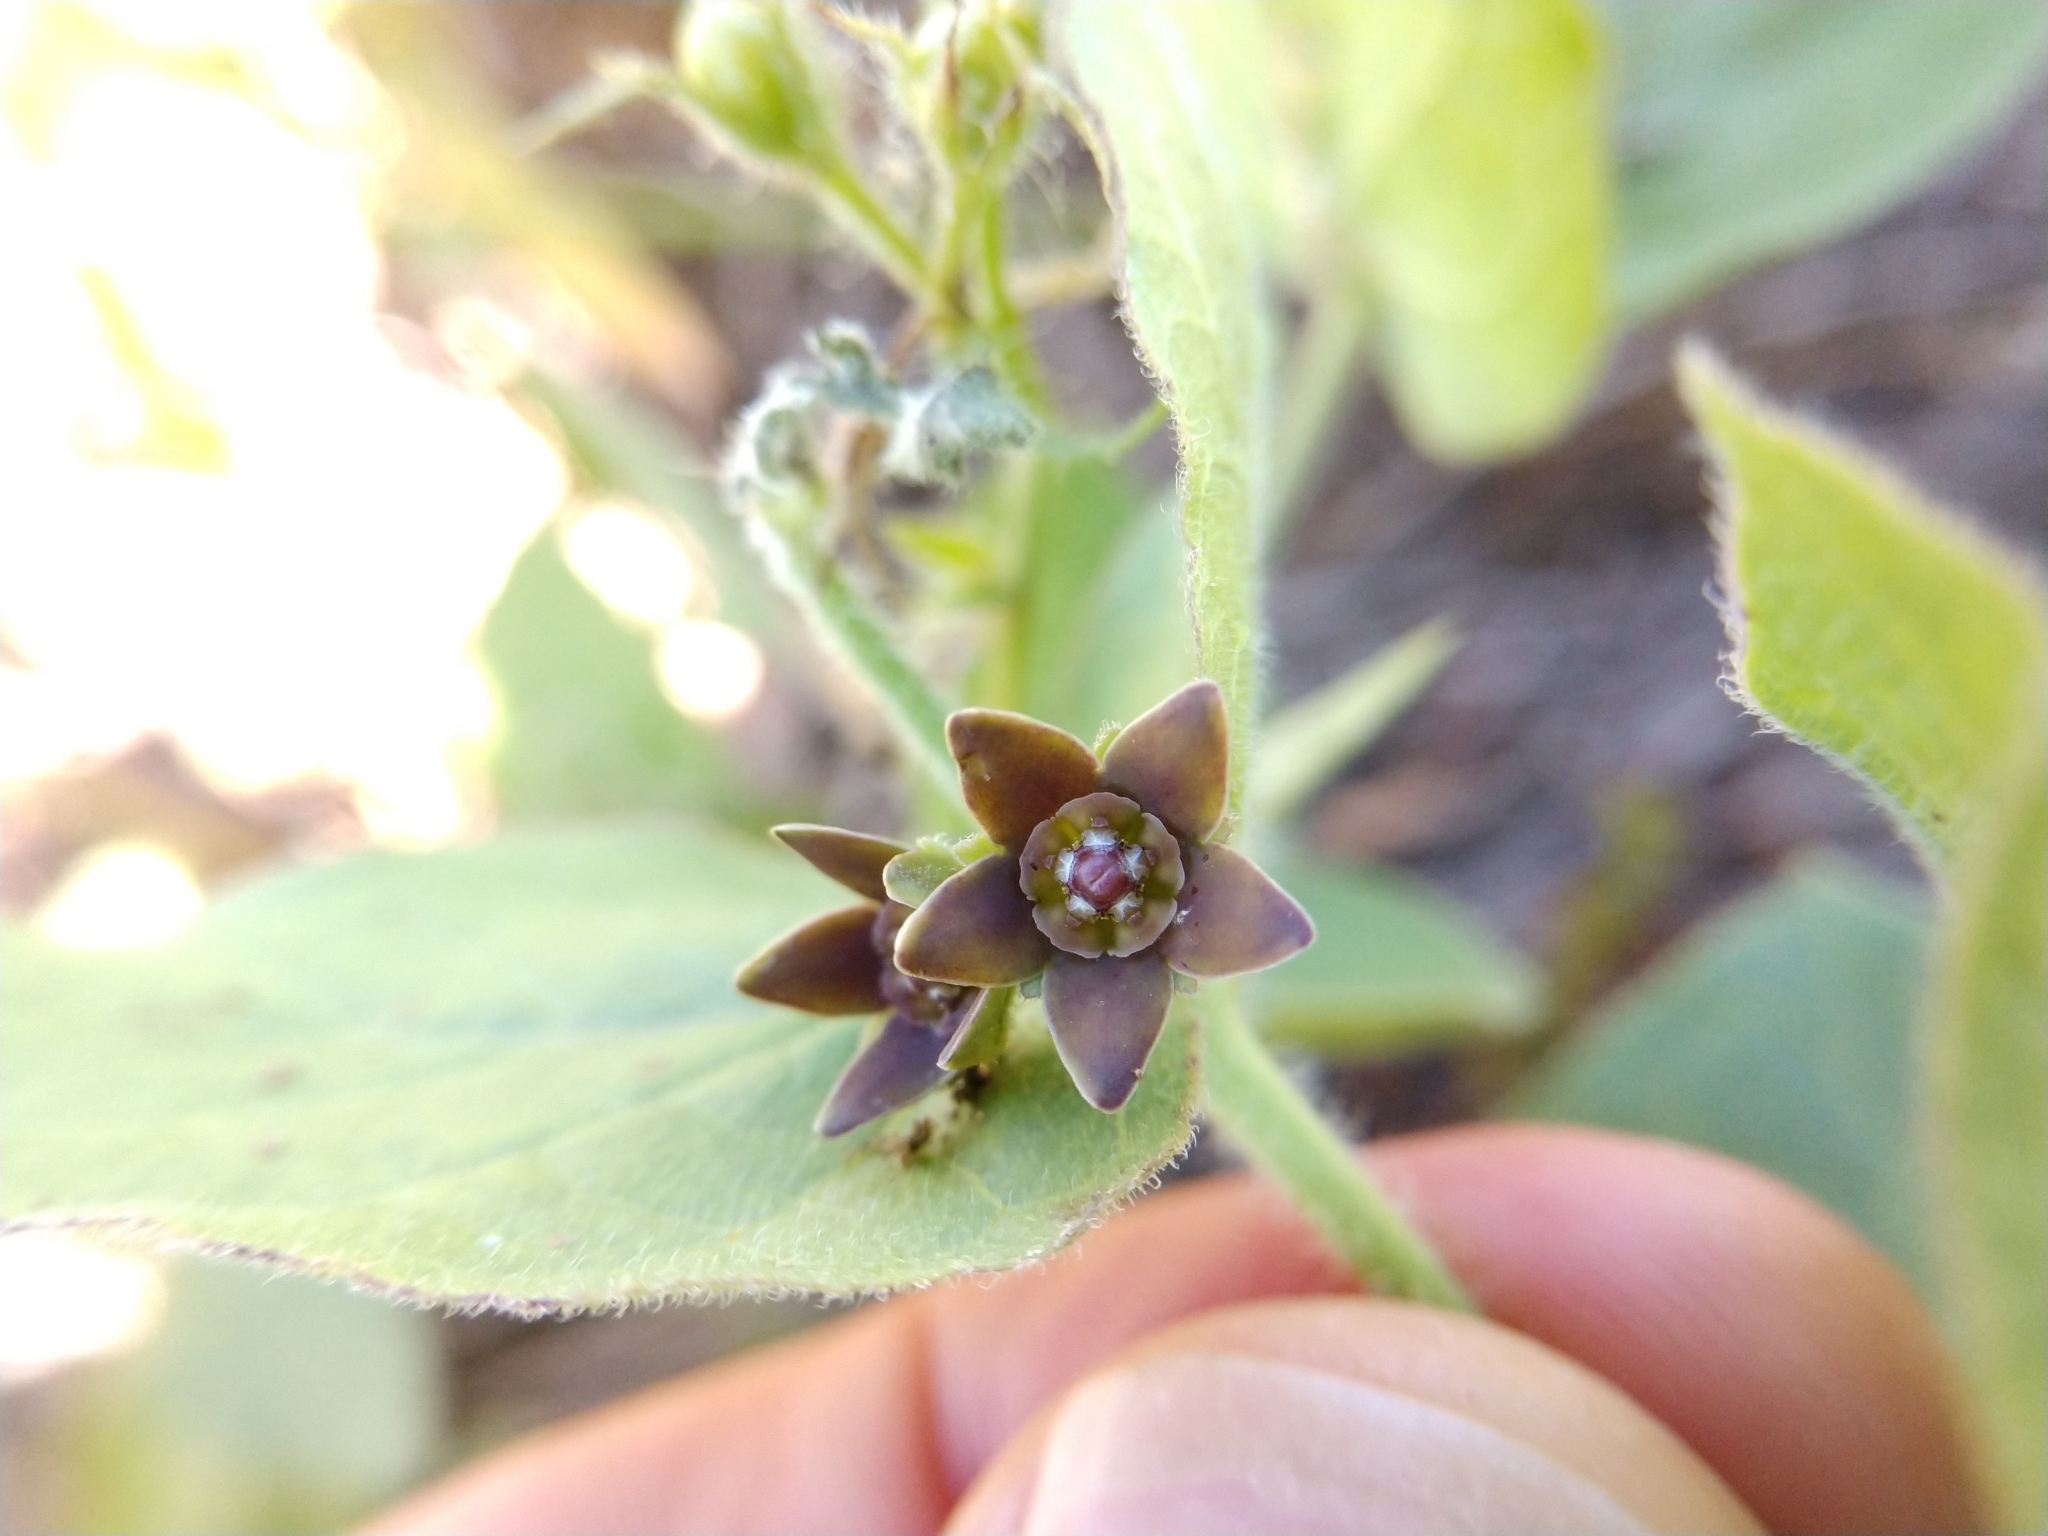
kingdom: Plantae
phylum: Tracheophyta
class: Magnoliopsida
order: Gentianales
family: Apocynaceae
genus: Matelea
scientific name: Matelea cynanchoides
